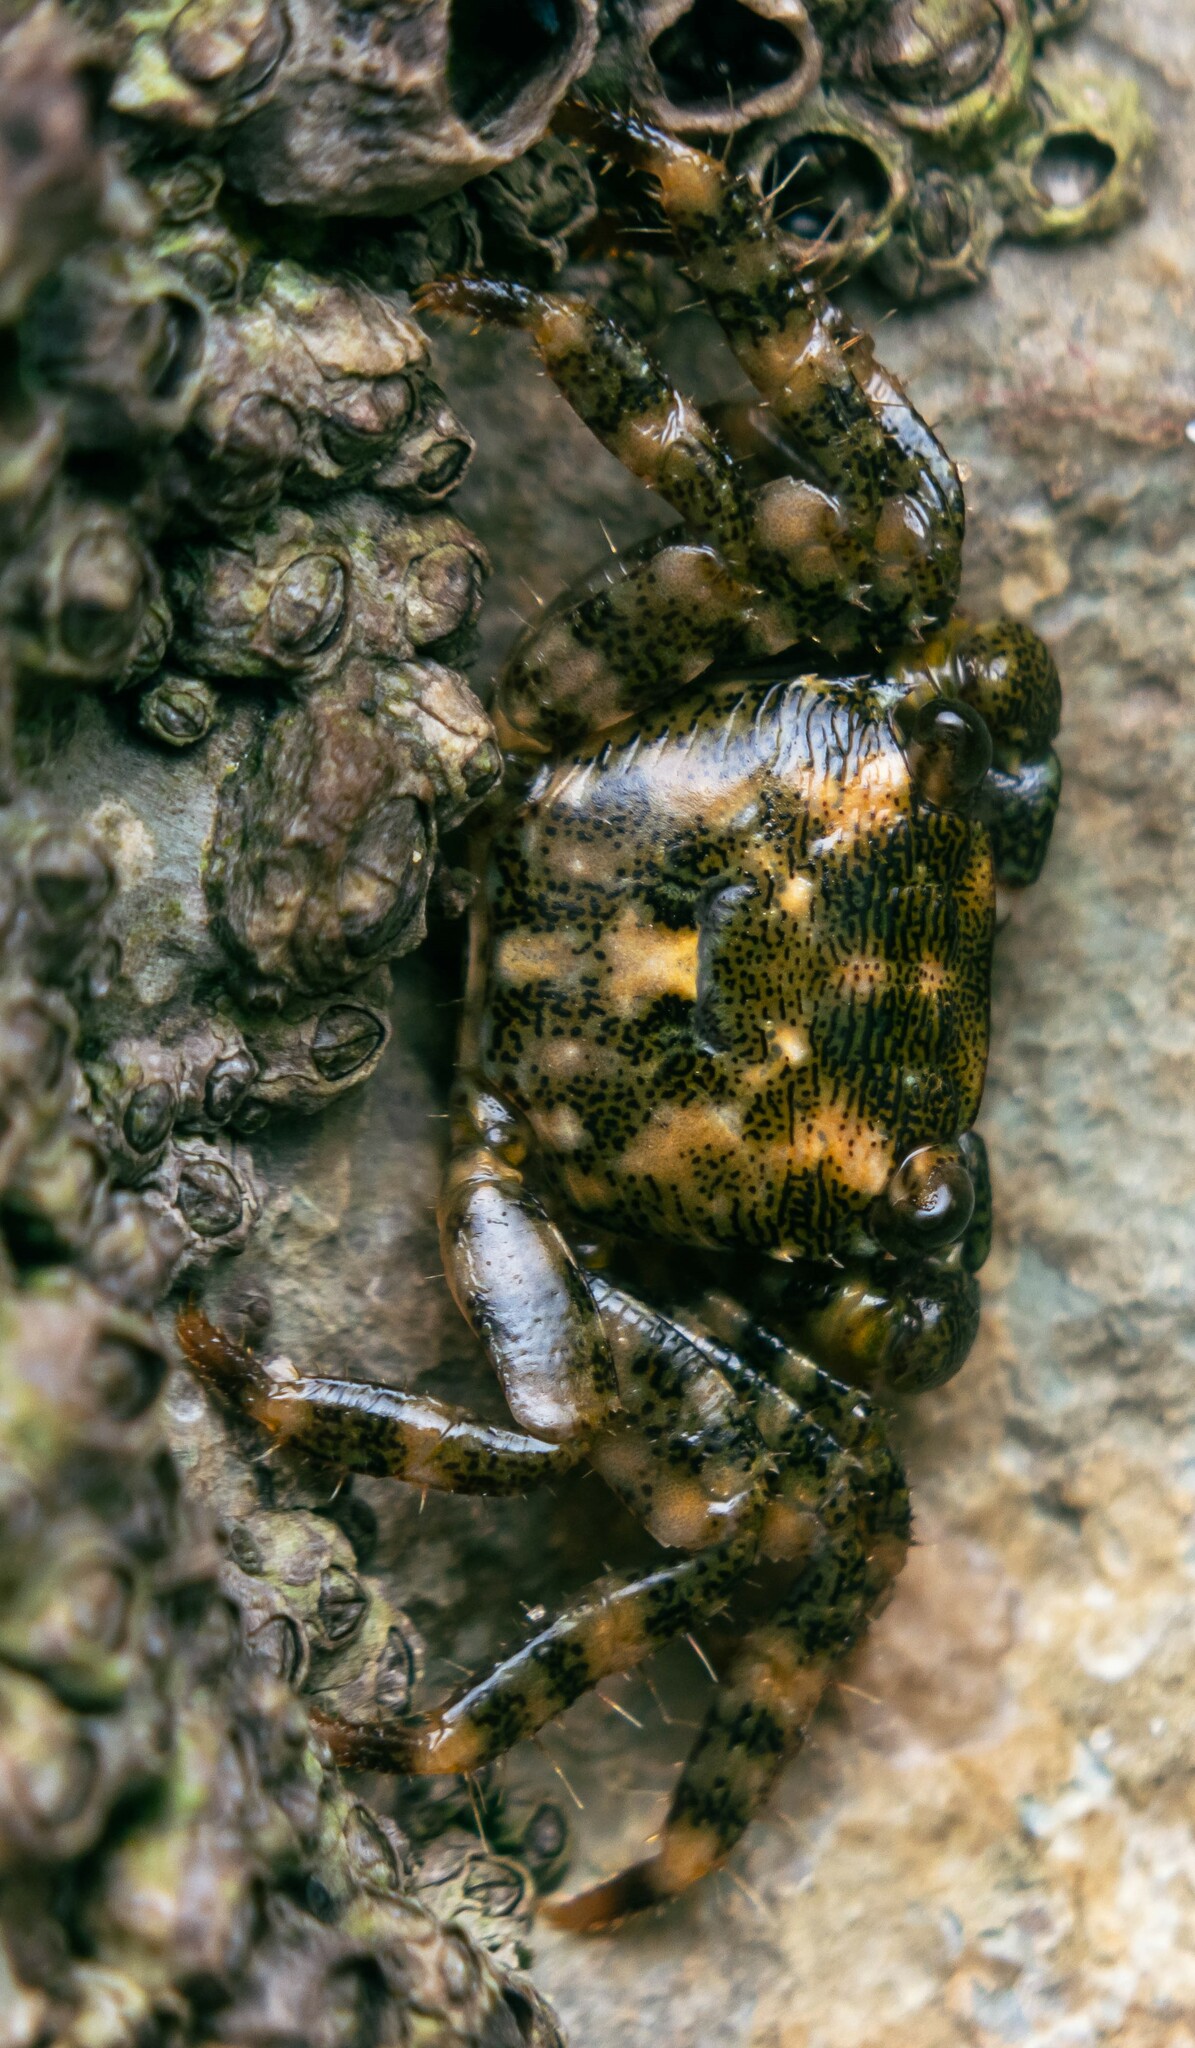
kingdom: Animalia
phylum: Arthropoda
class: Malacostraca
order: Decapoda
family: Grapsidae
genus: Pachygrapsus
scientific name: Pachygrapsus marmoratus
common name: Marbled rock crab
